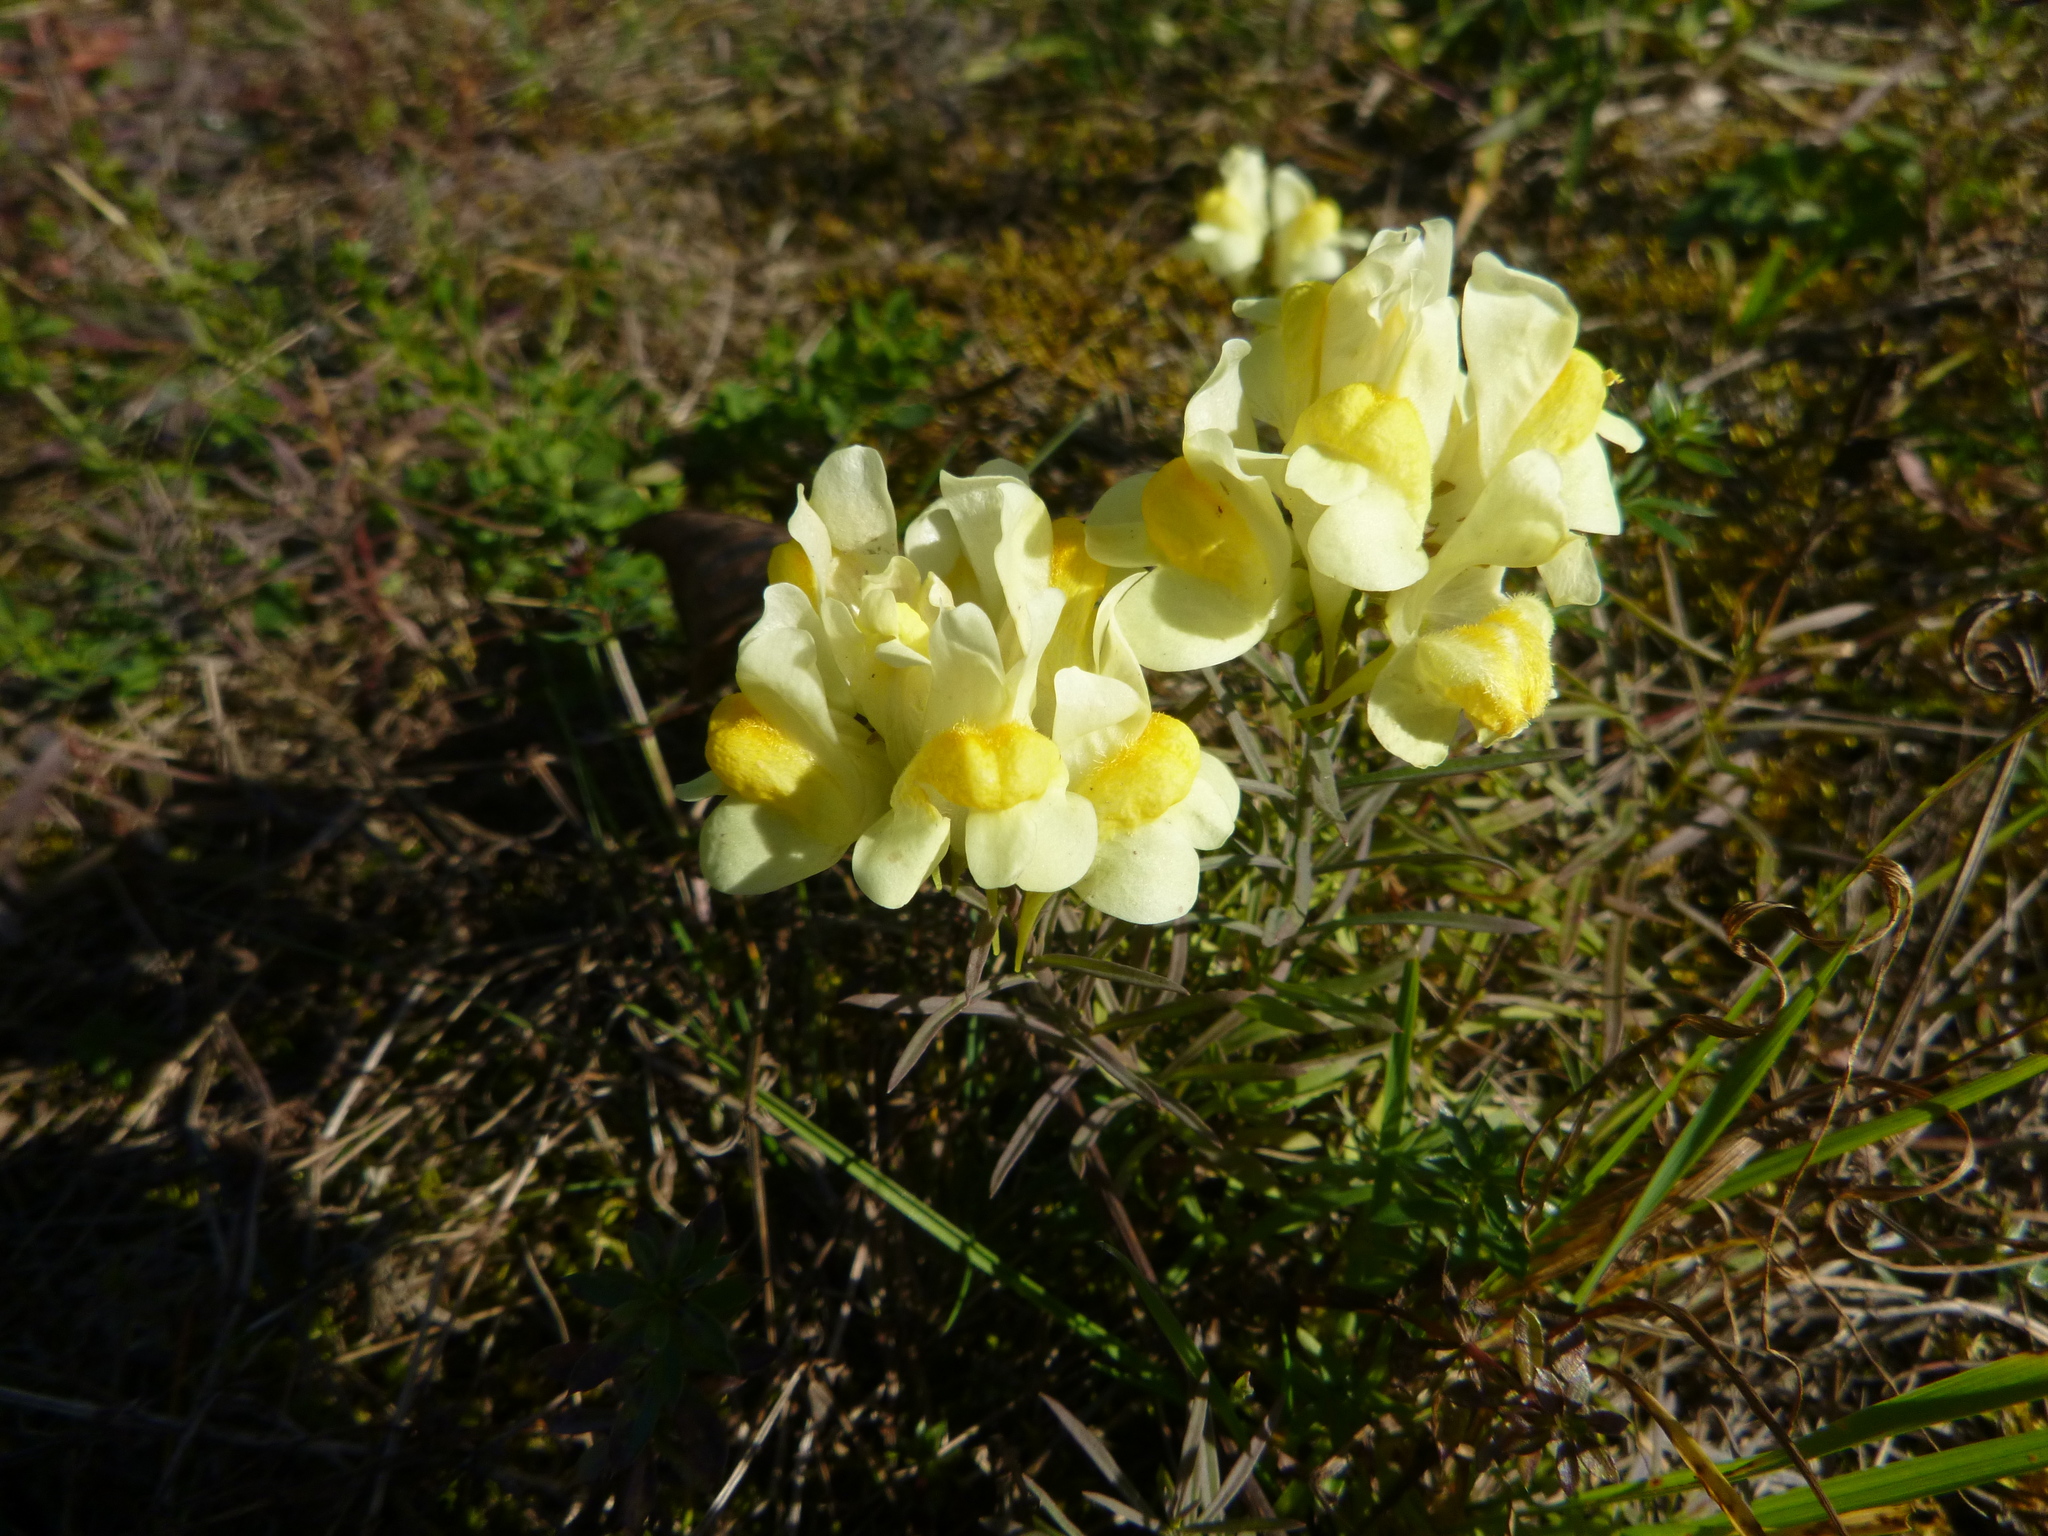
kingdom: Plantae
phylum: Tracheophyta
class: Magnoliopsida
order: Lamiales
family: Plantaginaceae
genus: Linaria
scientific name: Linaria vulgaris
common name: Butter and eggs
